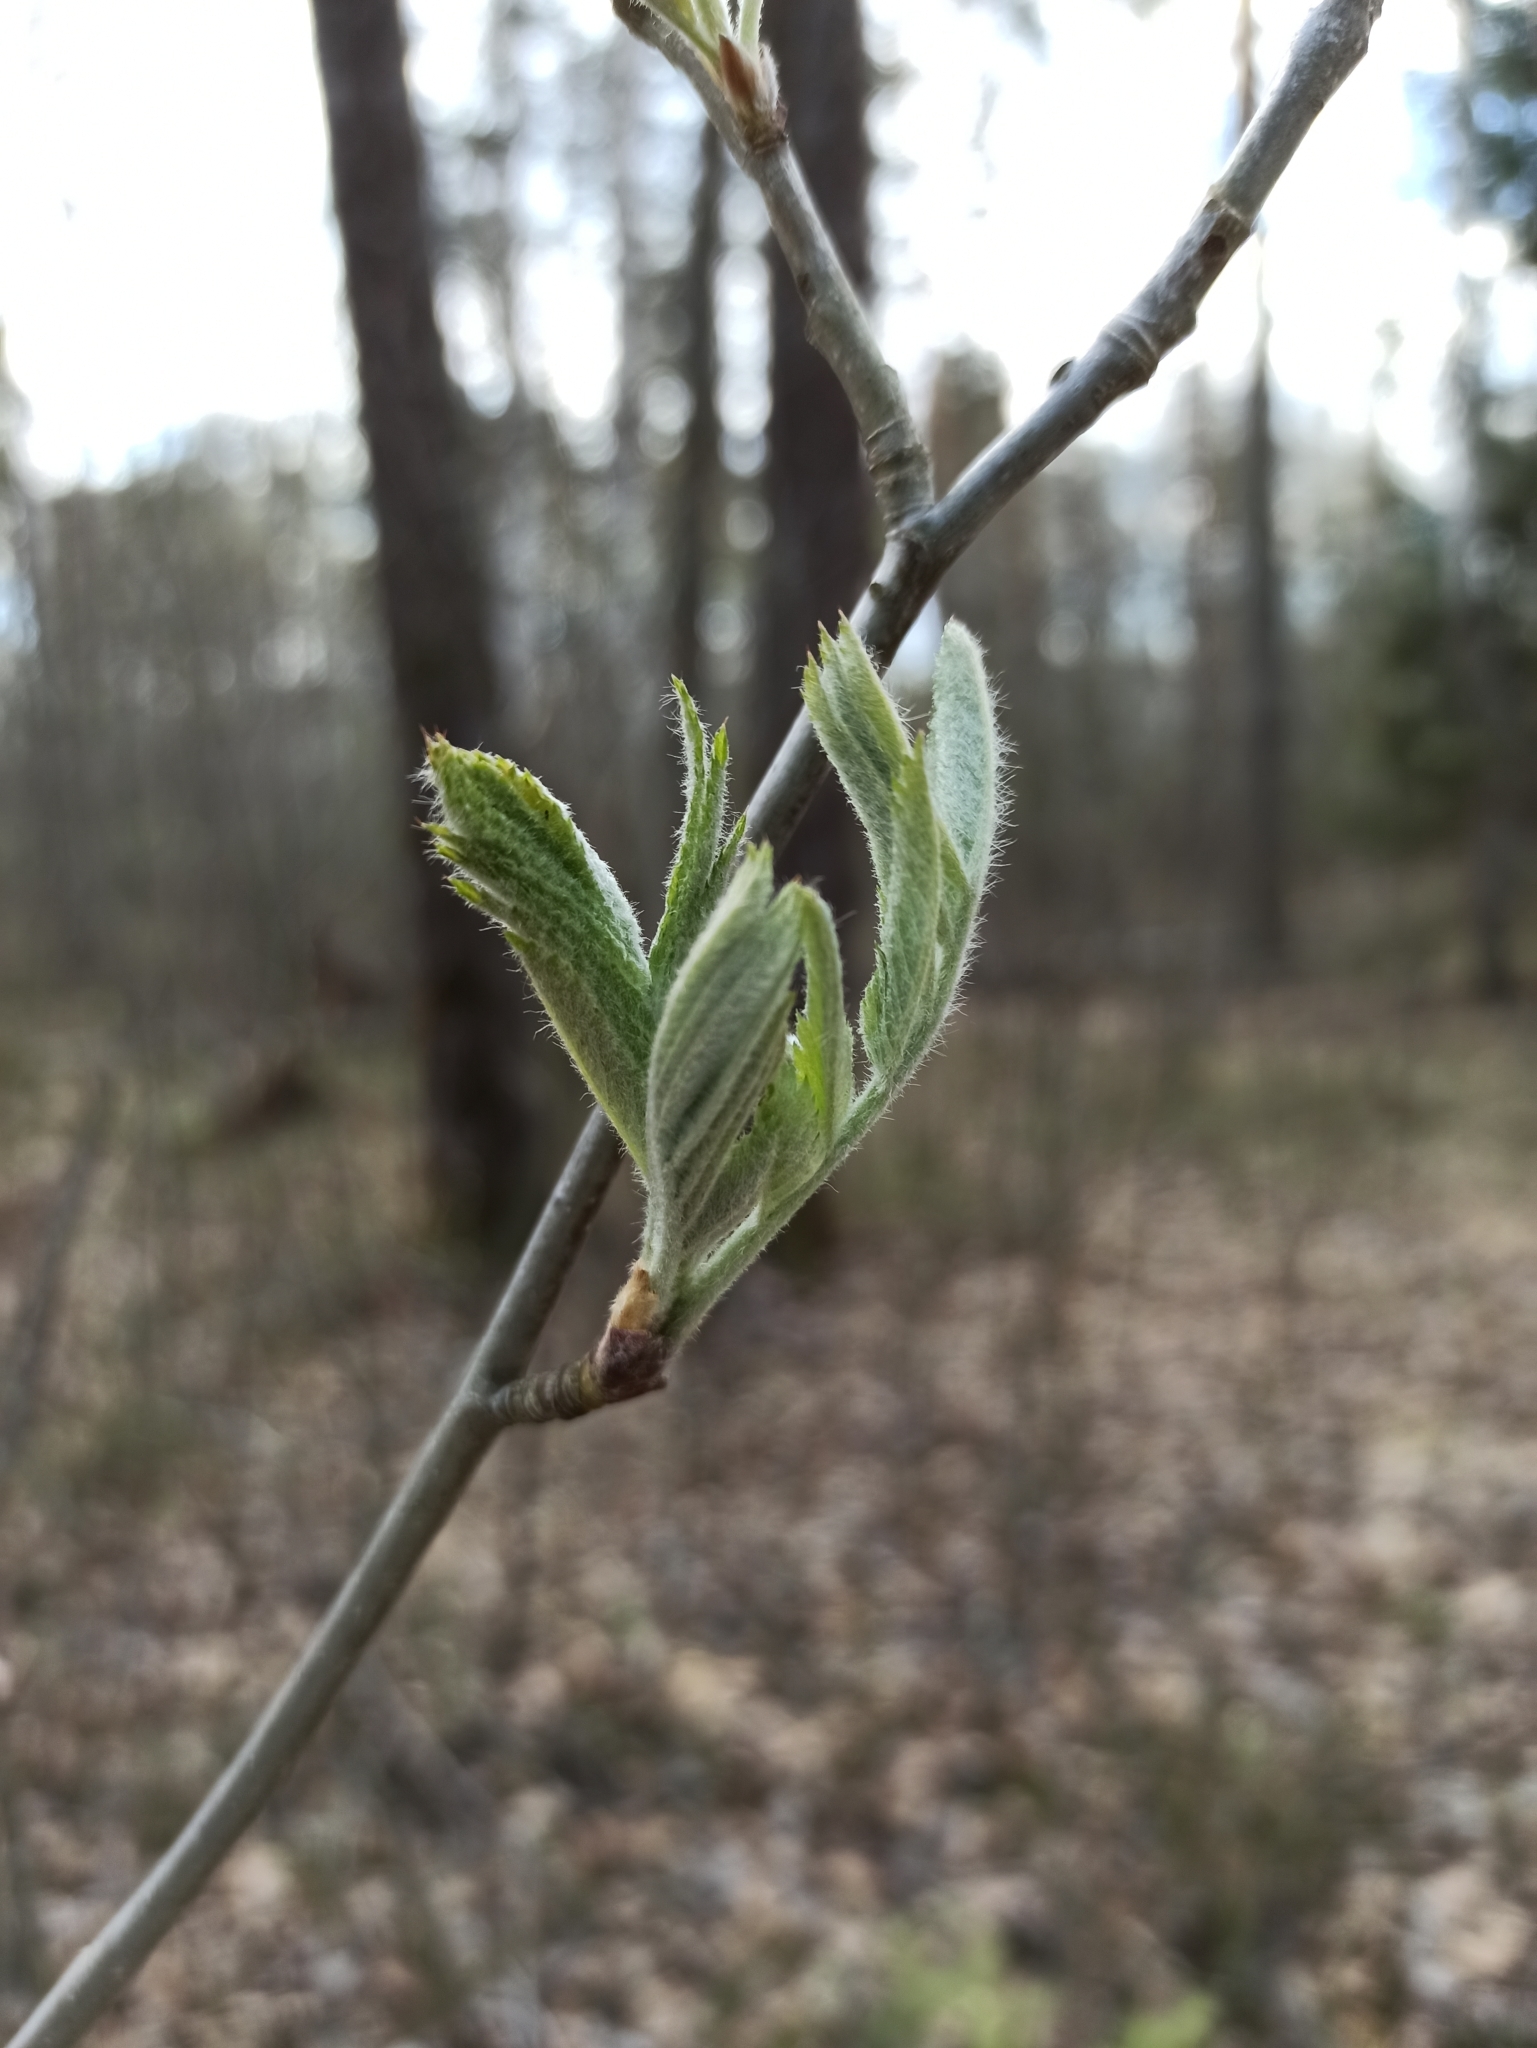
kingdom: Plantae
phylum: Tracheophyta
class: Magnoliopsida
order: Rosales
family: Rosaceae
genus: Sorbus
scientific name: Sorbus aucuparia
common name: Rowan
